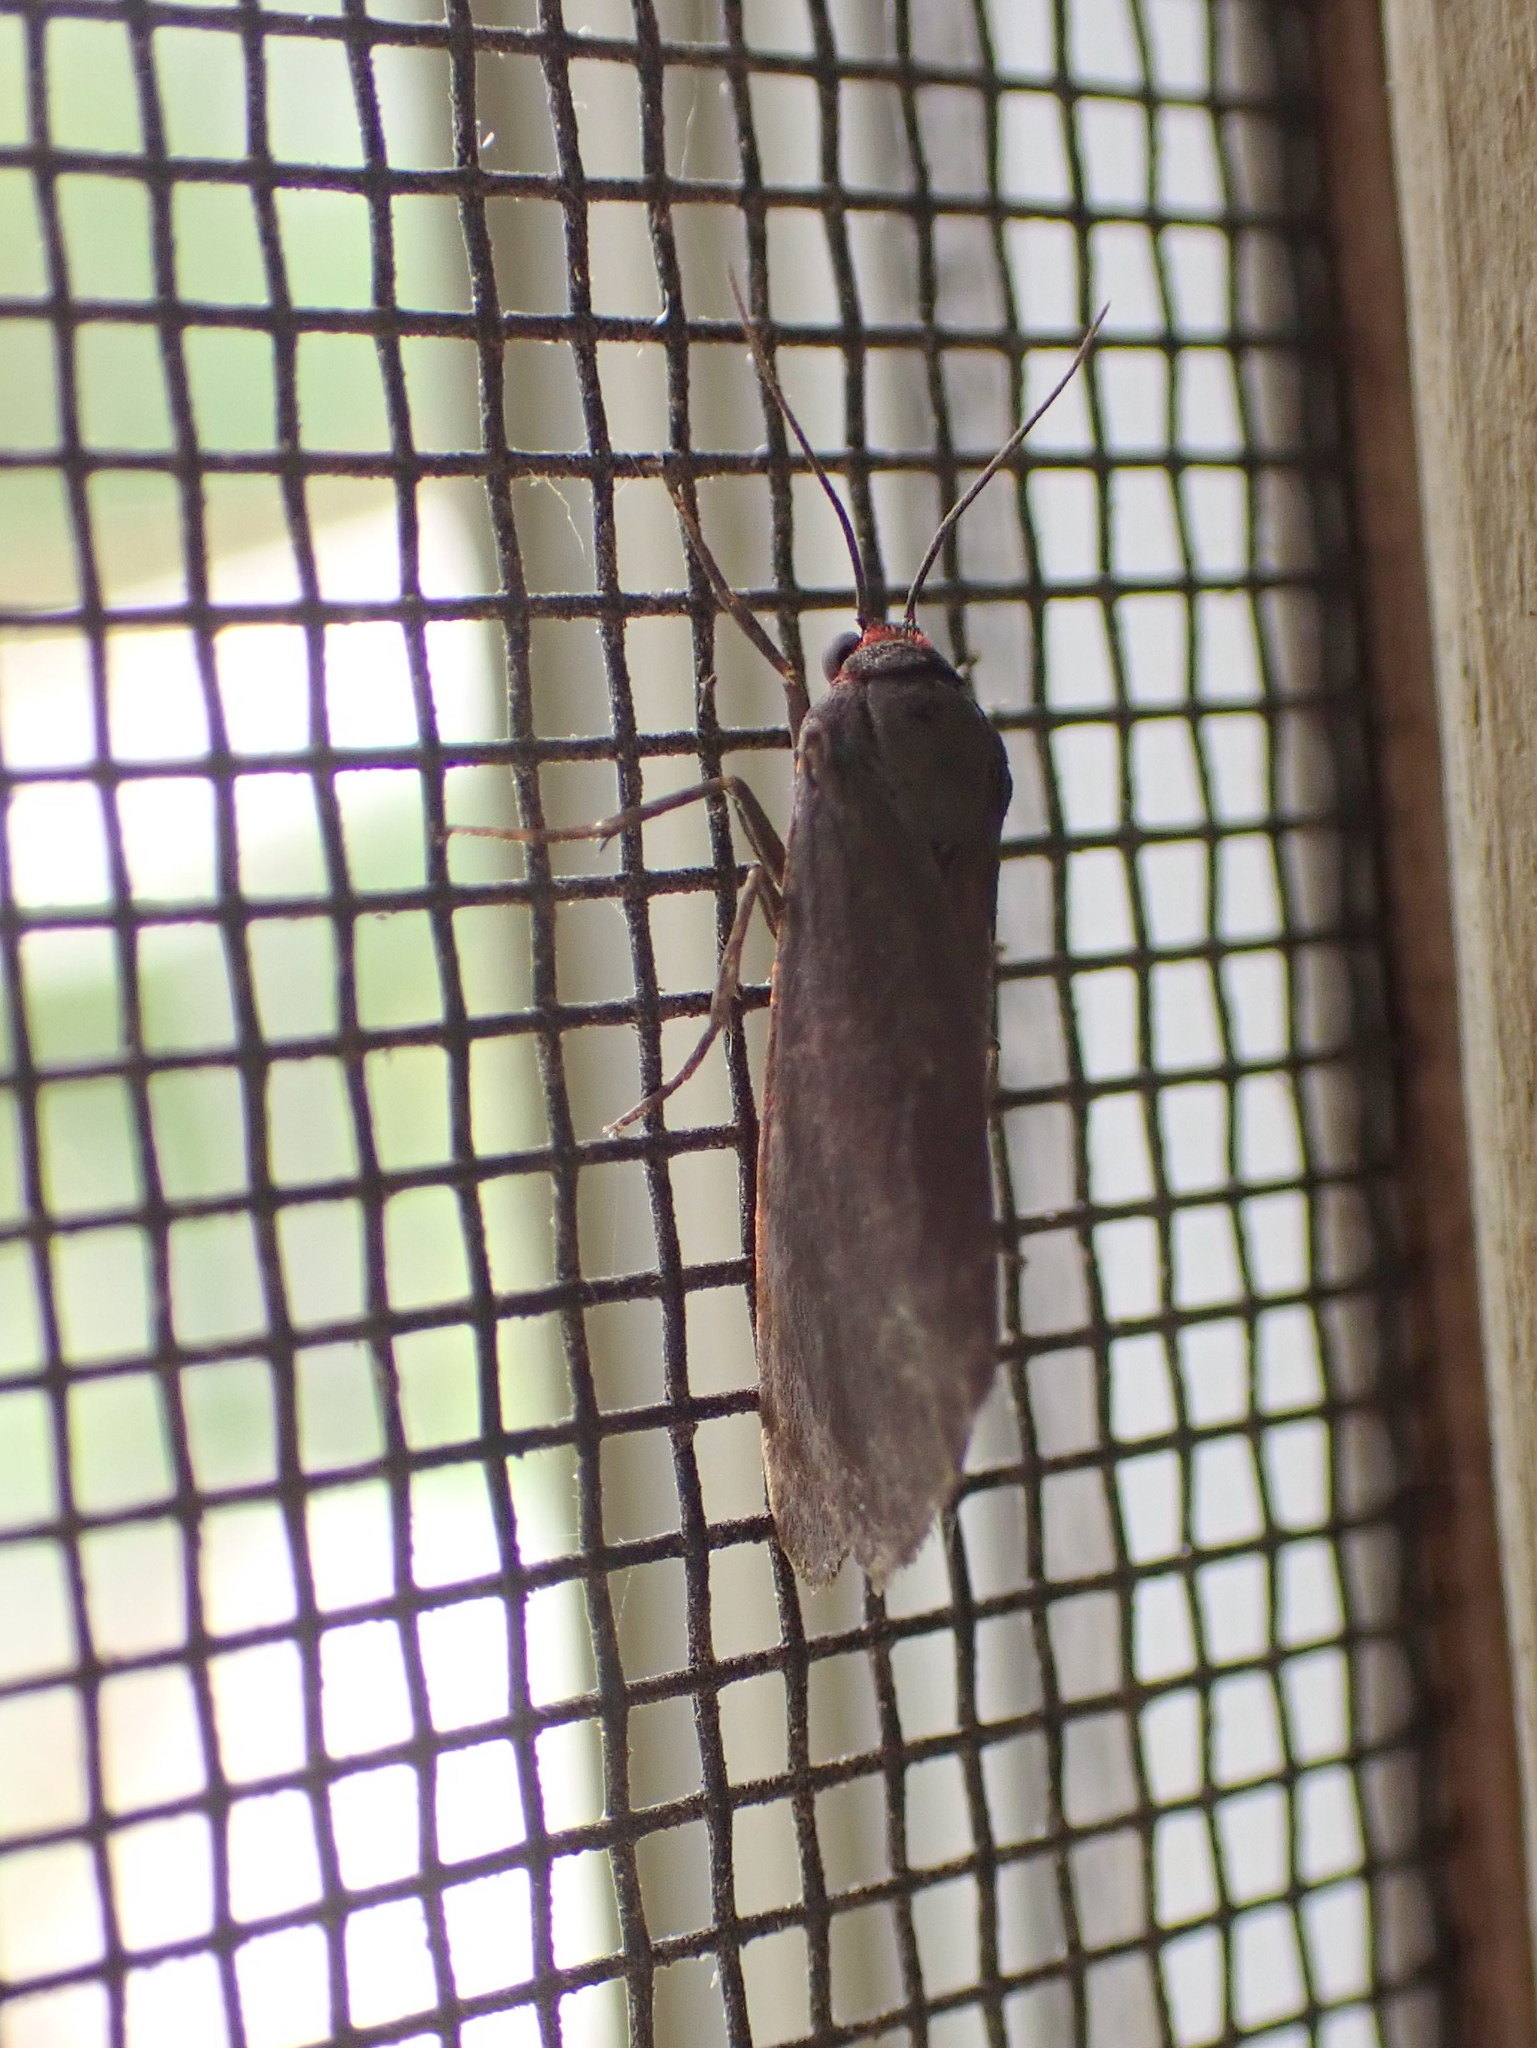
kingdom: Animalia
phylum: Arthropoda
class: Insecta
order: Lepidoptera
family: Erebidae
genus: Virbia
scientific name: Virbia laeta
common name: Joyful holomelina moth
